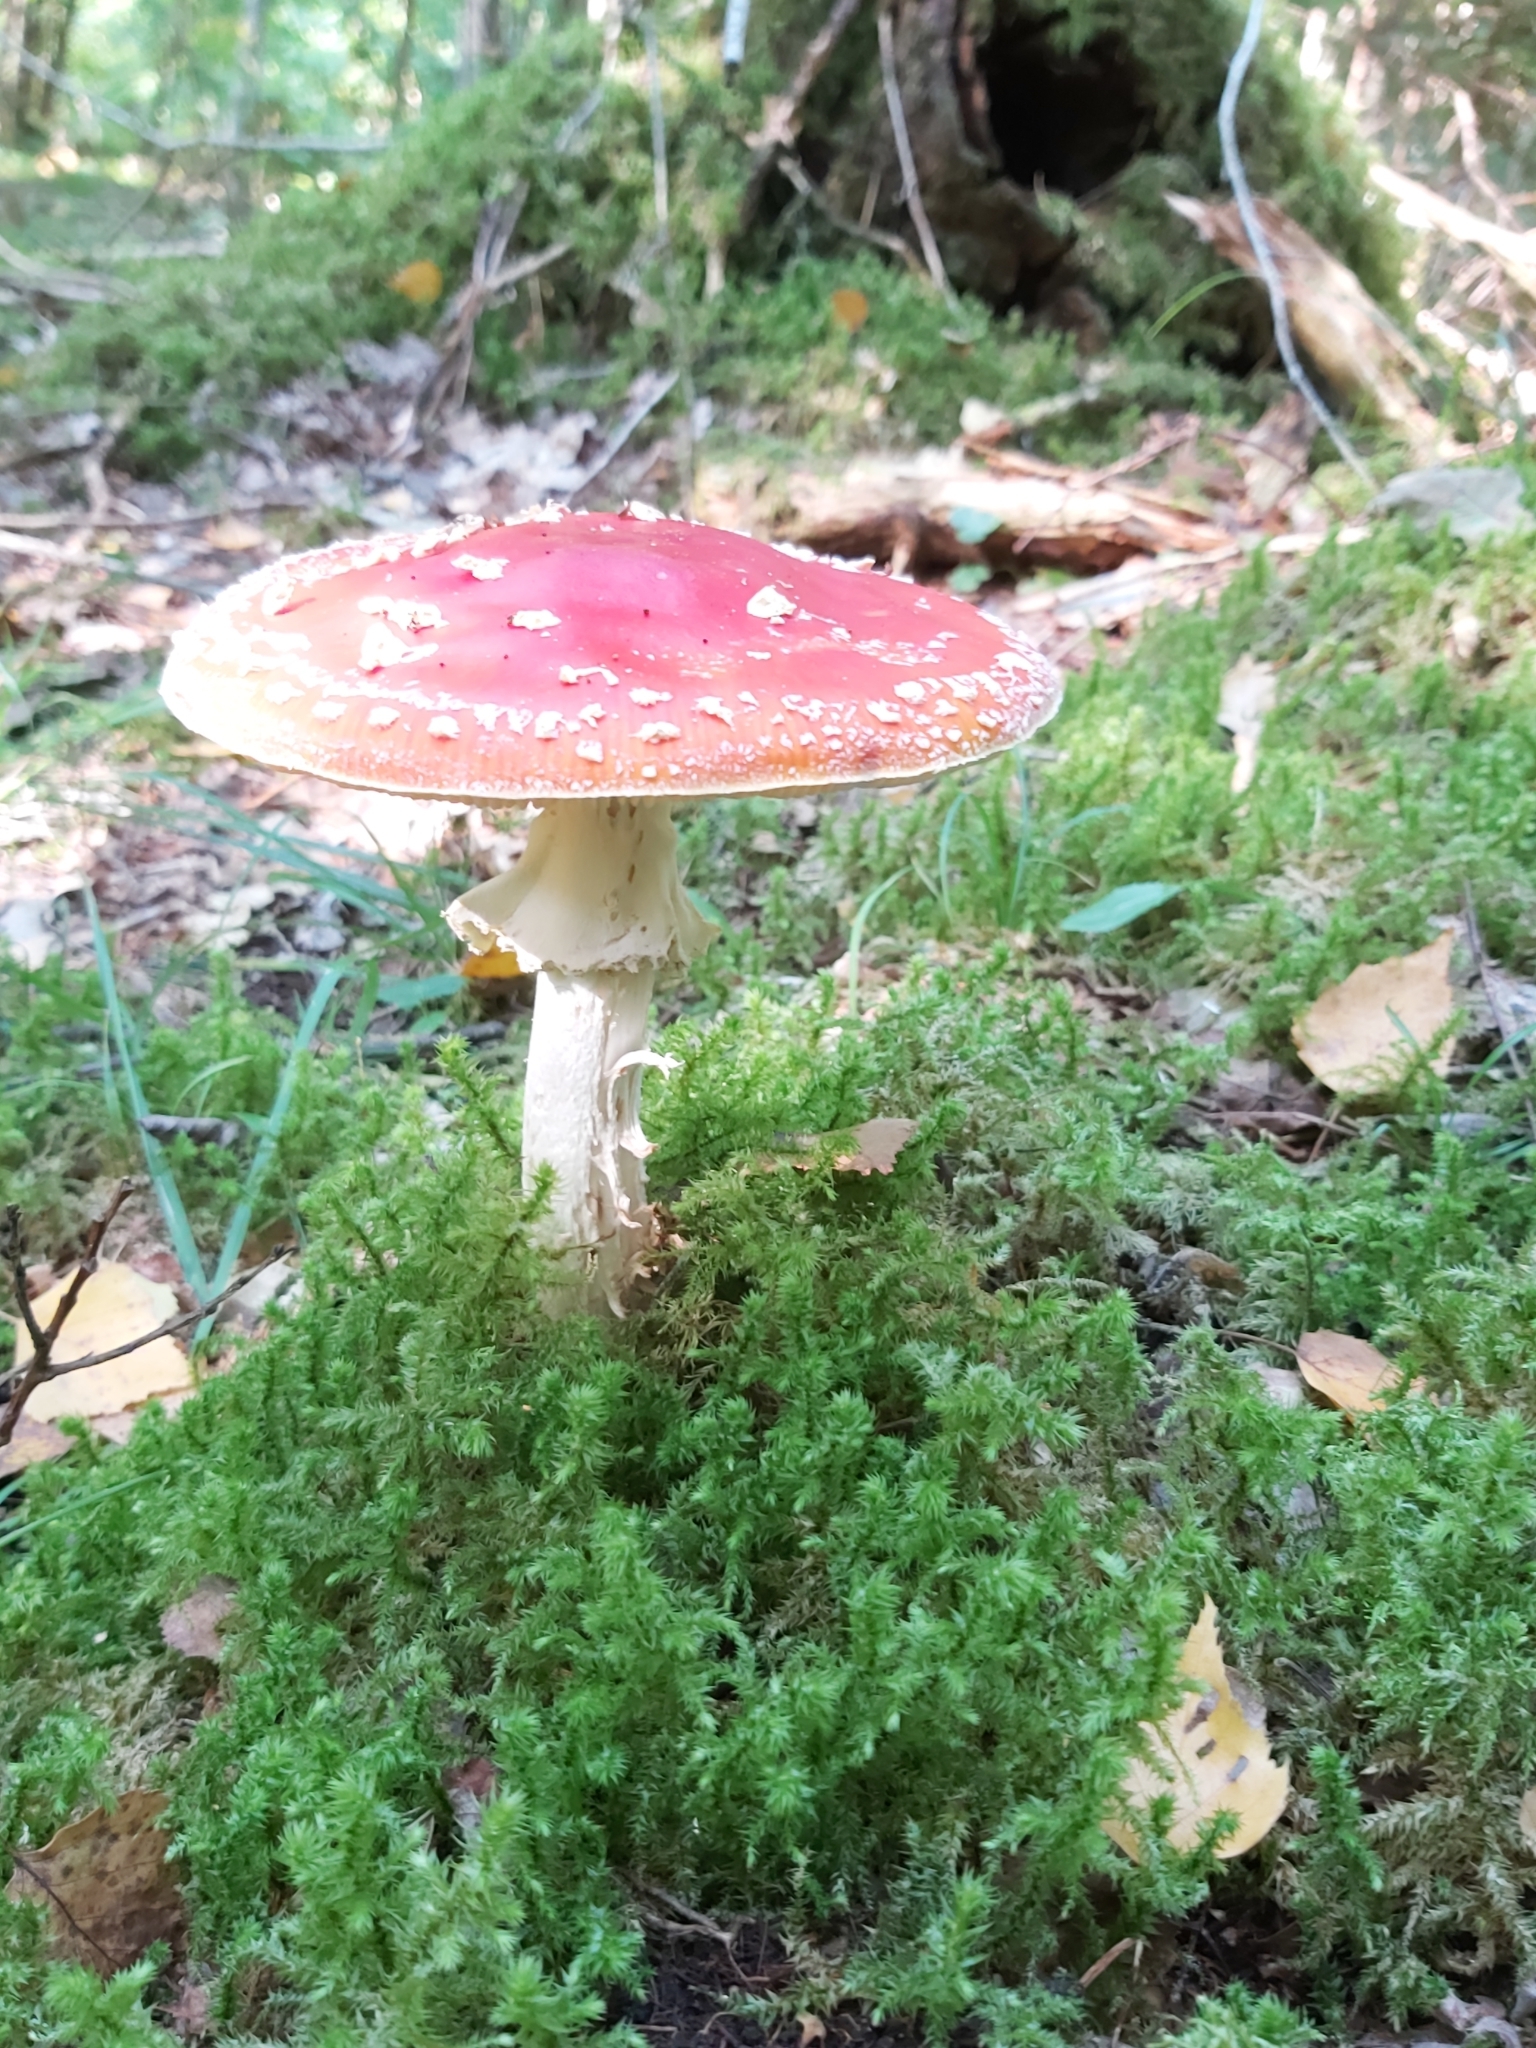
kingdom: Fungi
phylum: Basidiomycota
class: Agaricomycetes
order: Agaricales
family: Amanitaceae
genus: Amanita
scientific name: Amanita muscaria
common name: Fly agaric
